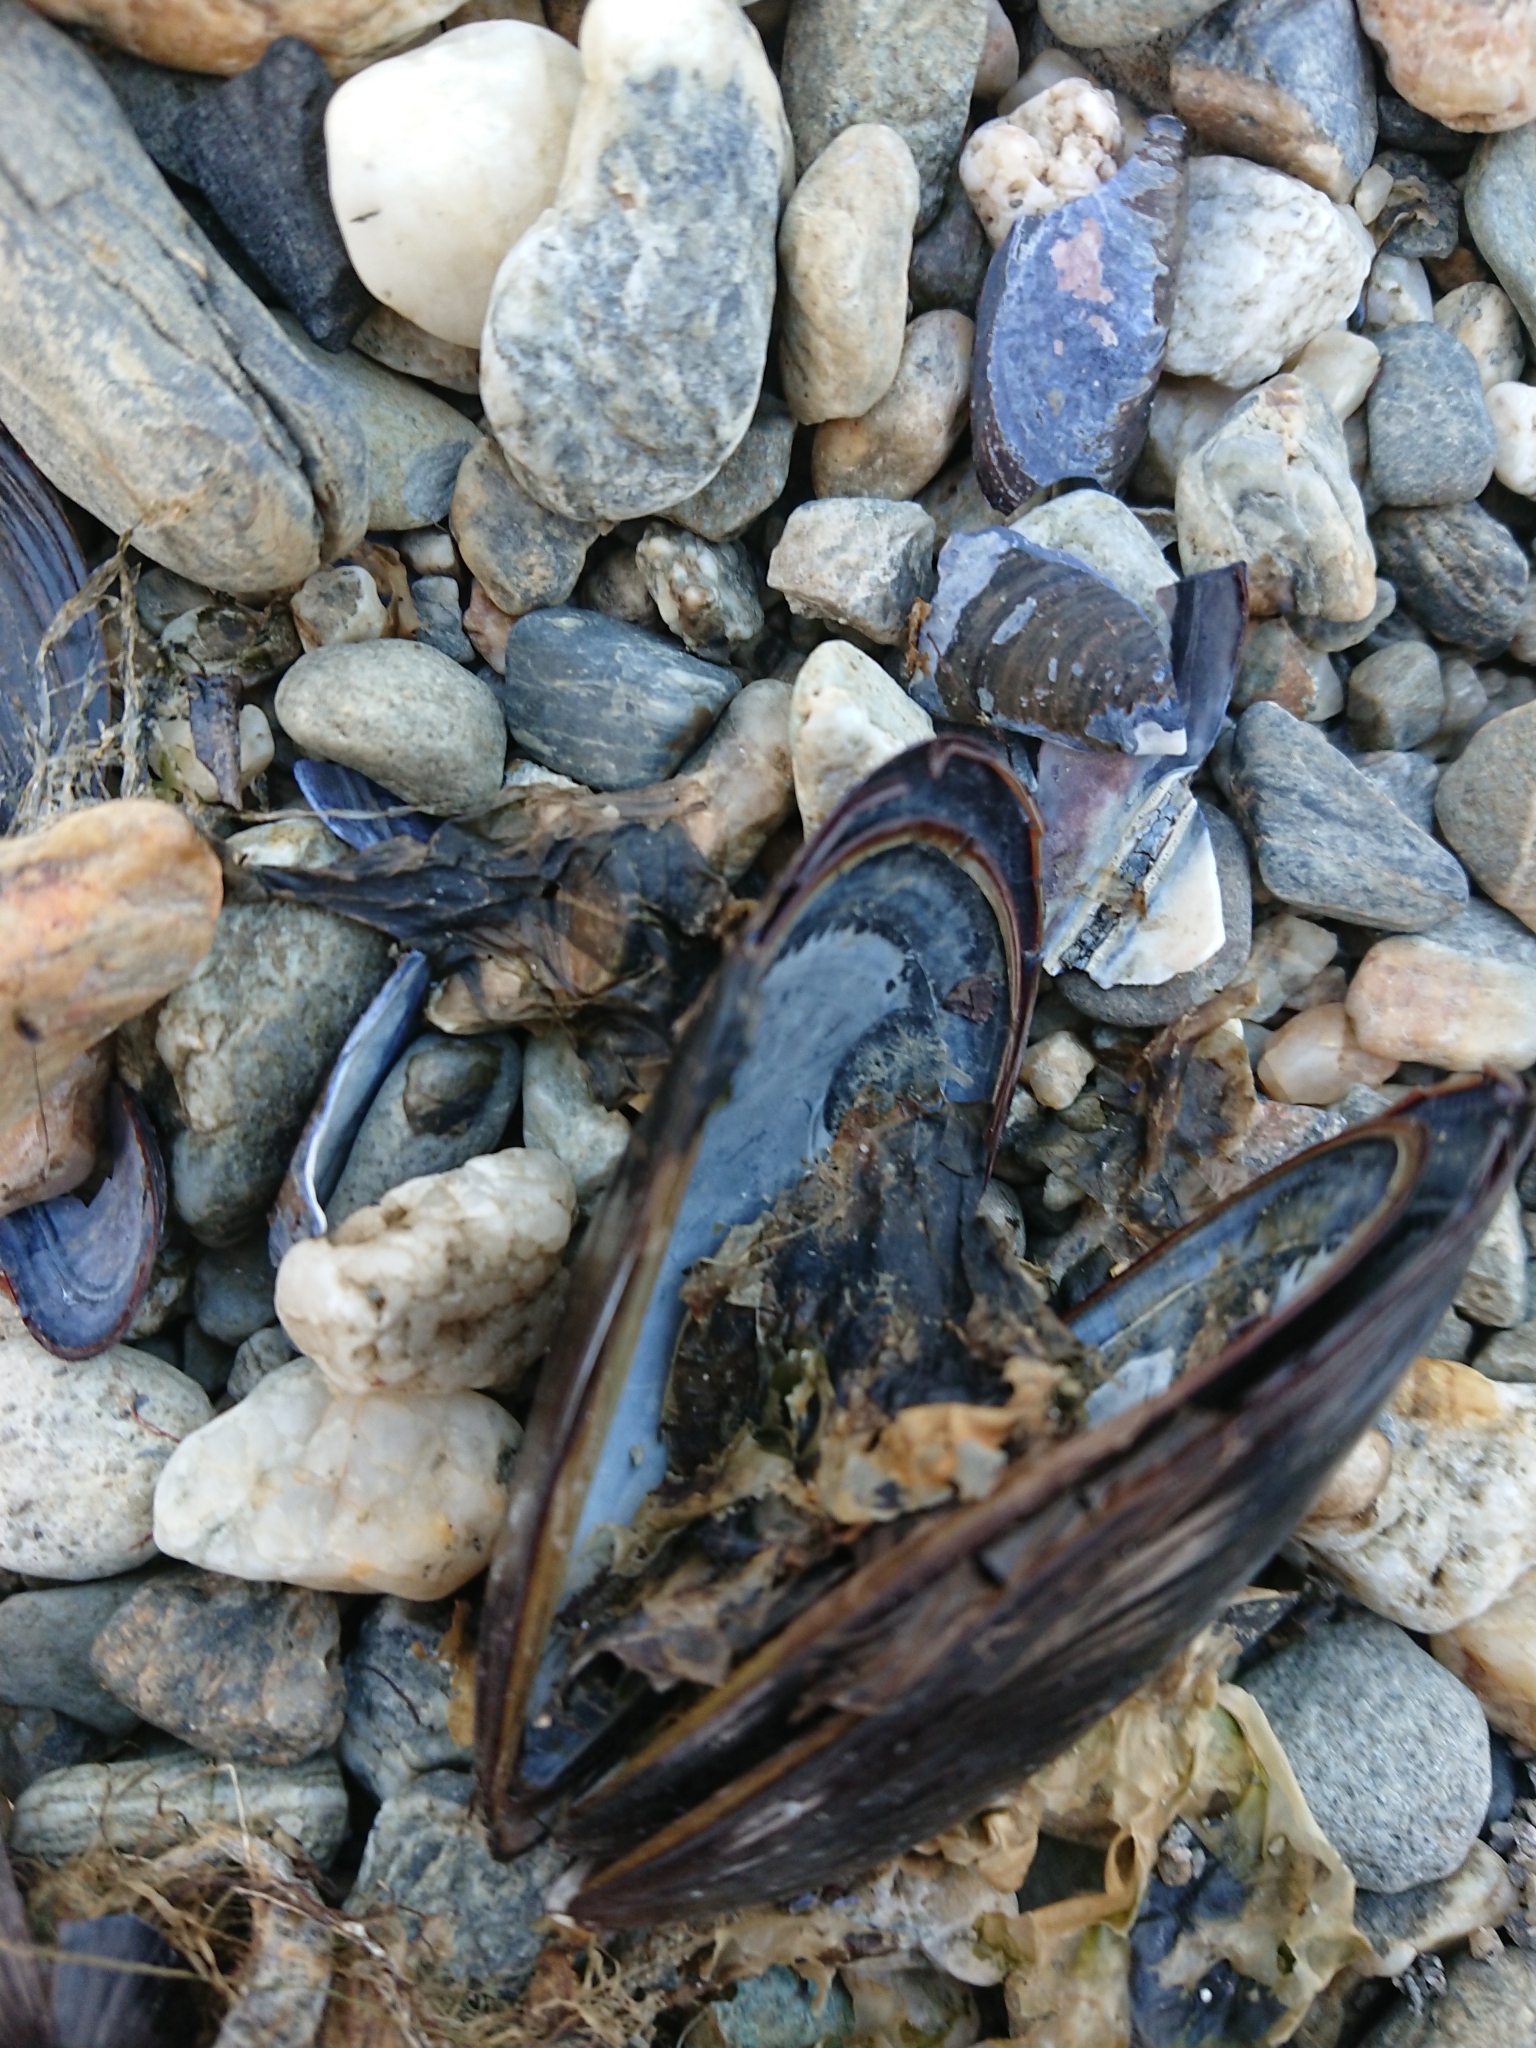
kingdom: Animalia
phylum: Mollusca
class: Bivalvia
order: Mytilida
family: Mytilidae
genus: Mytilus
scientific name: Mytilus chilensis
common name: Chilean mussel
